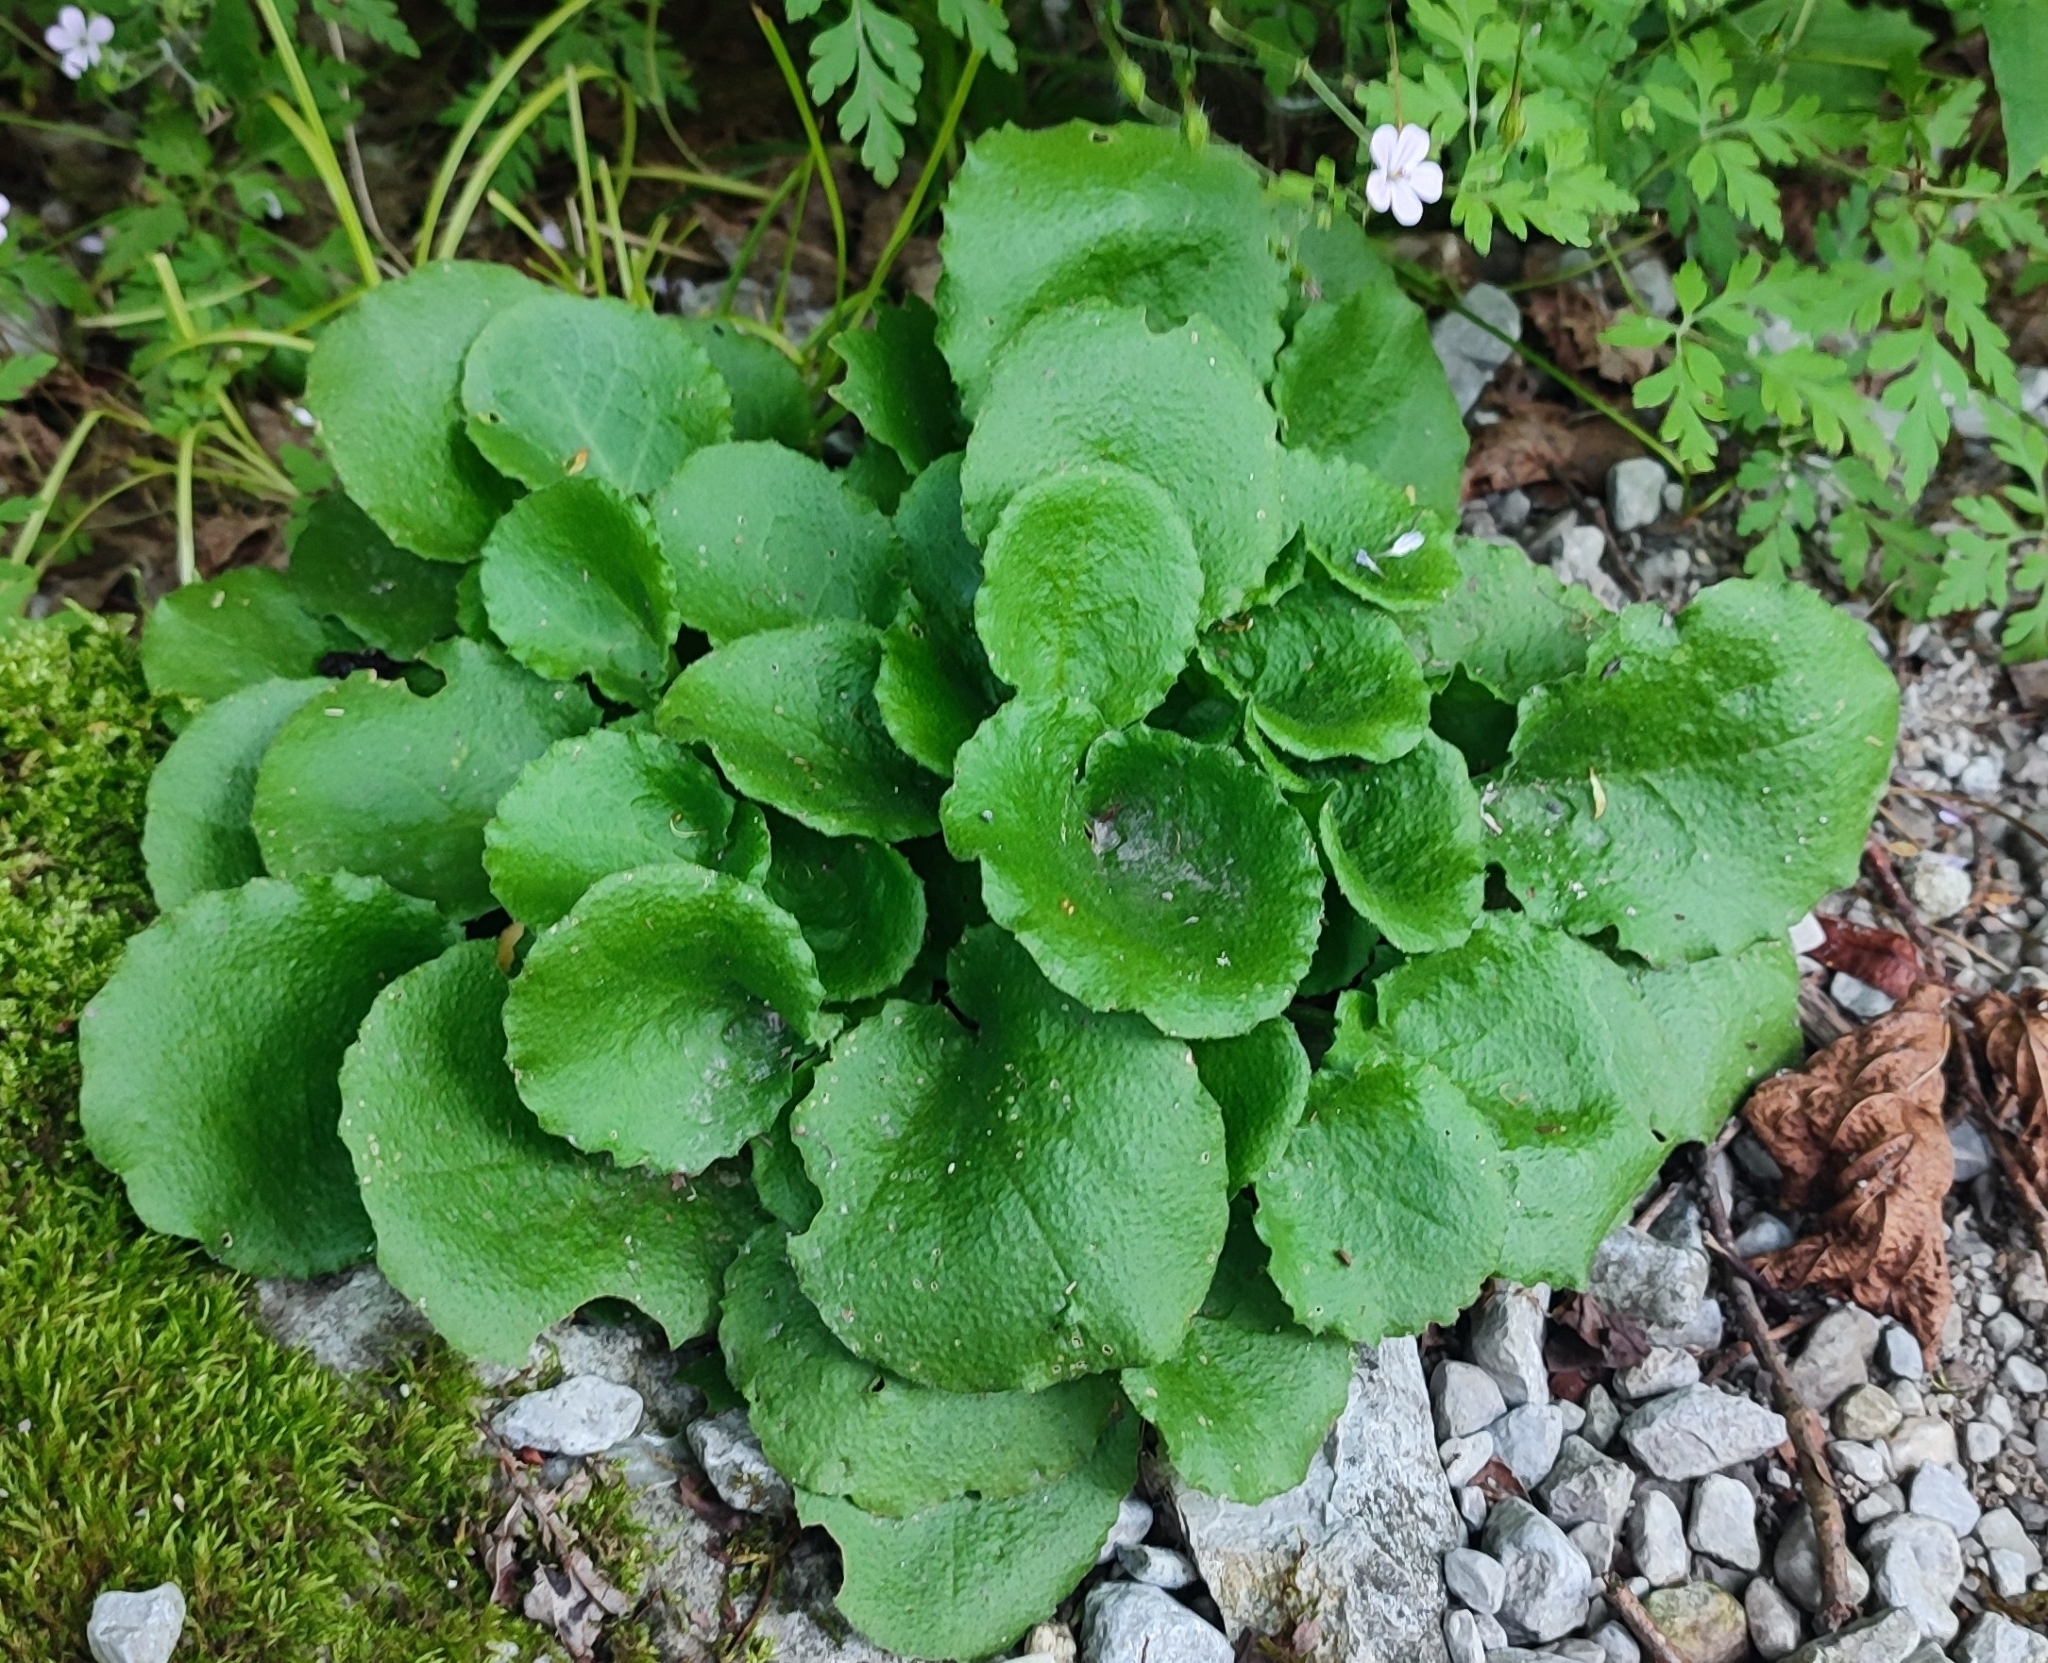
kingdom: Plantae
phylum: Tracheophyta
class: Magnoliopsida
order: Brassicales
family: Brassicaceae
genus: Arabis
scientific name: Arabis nordmanniana
